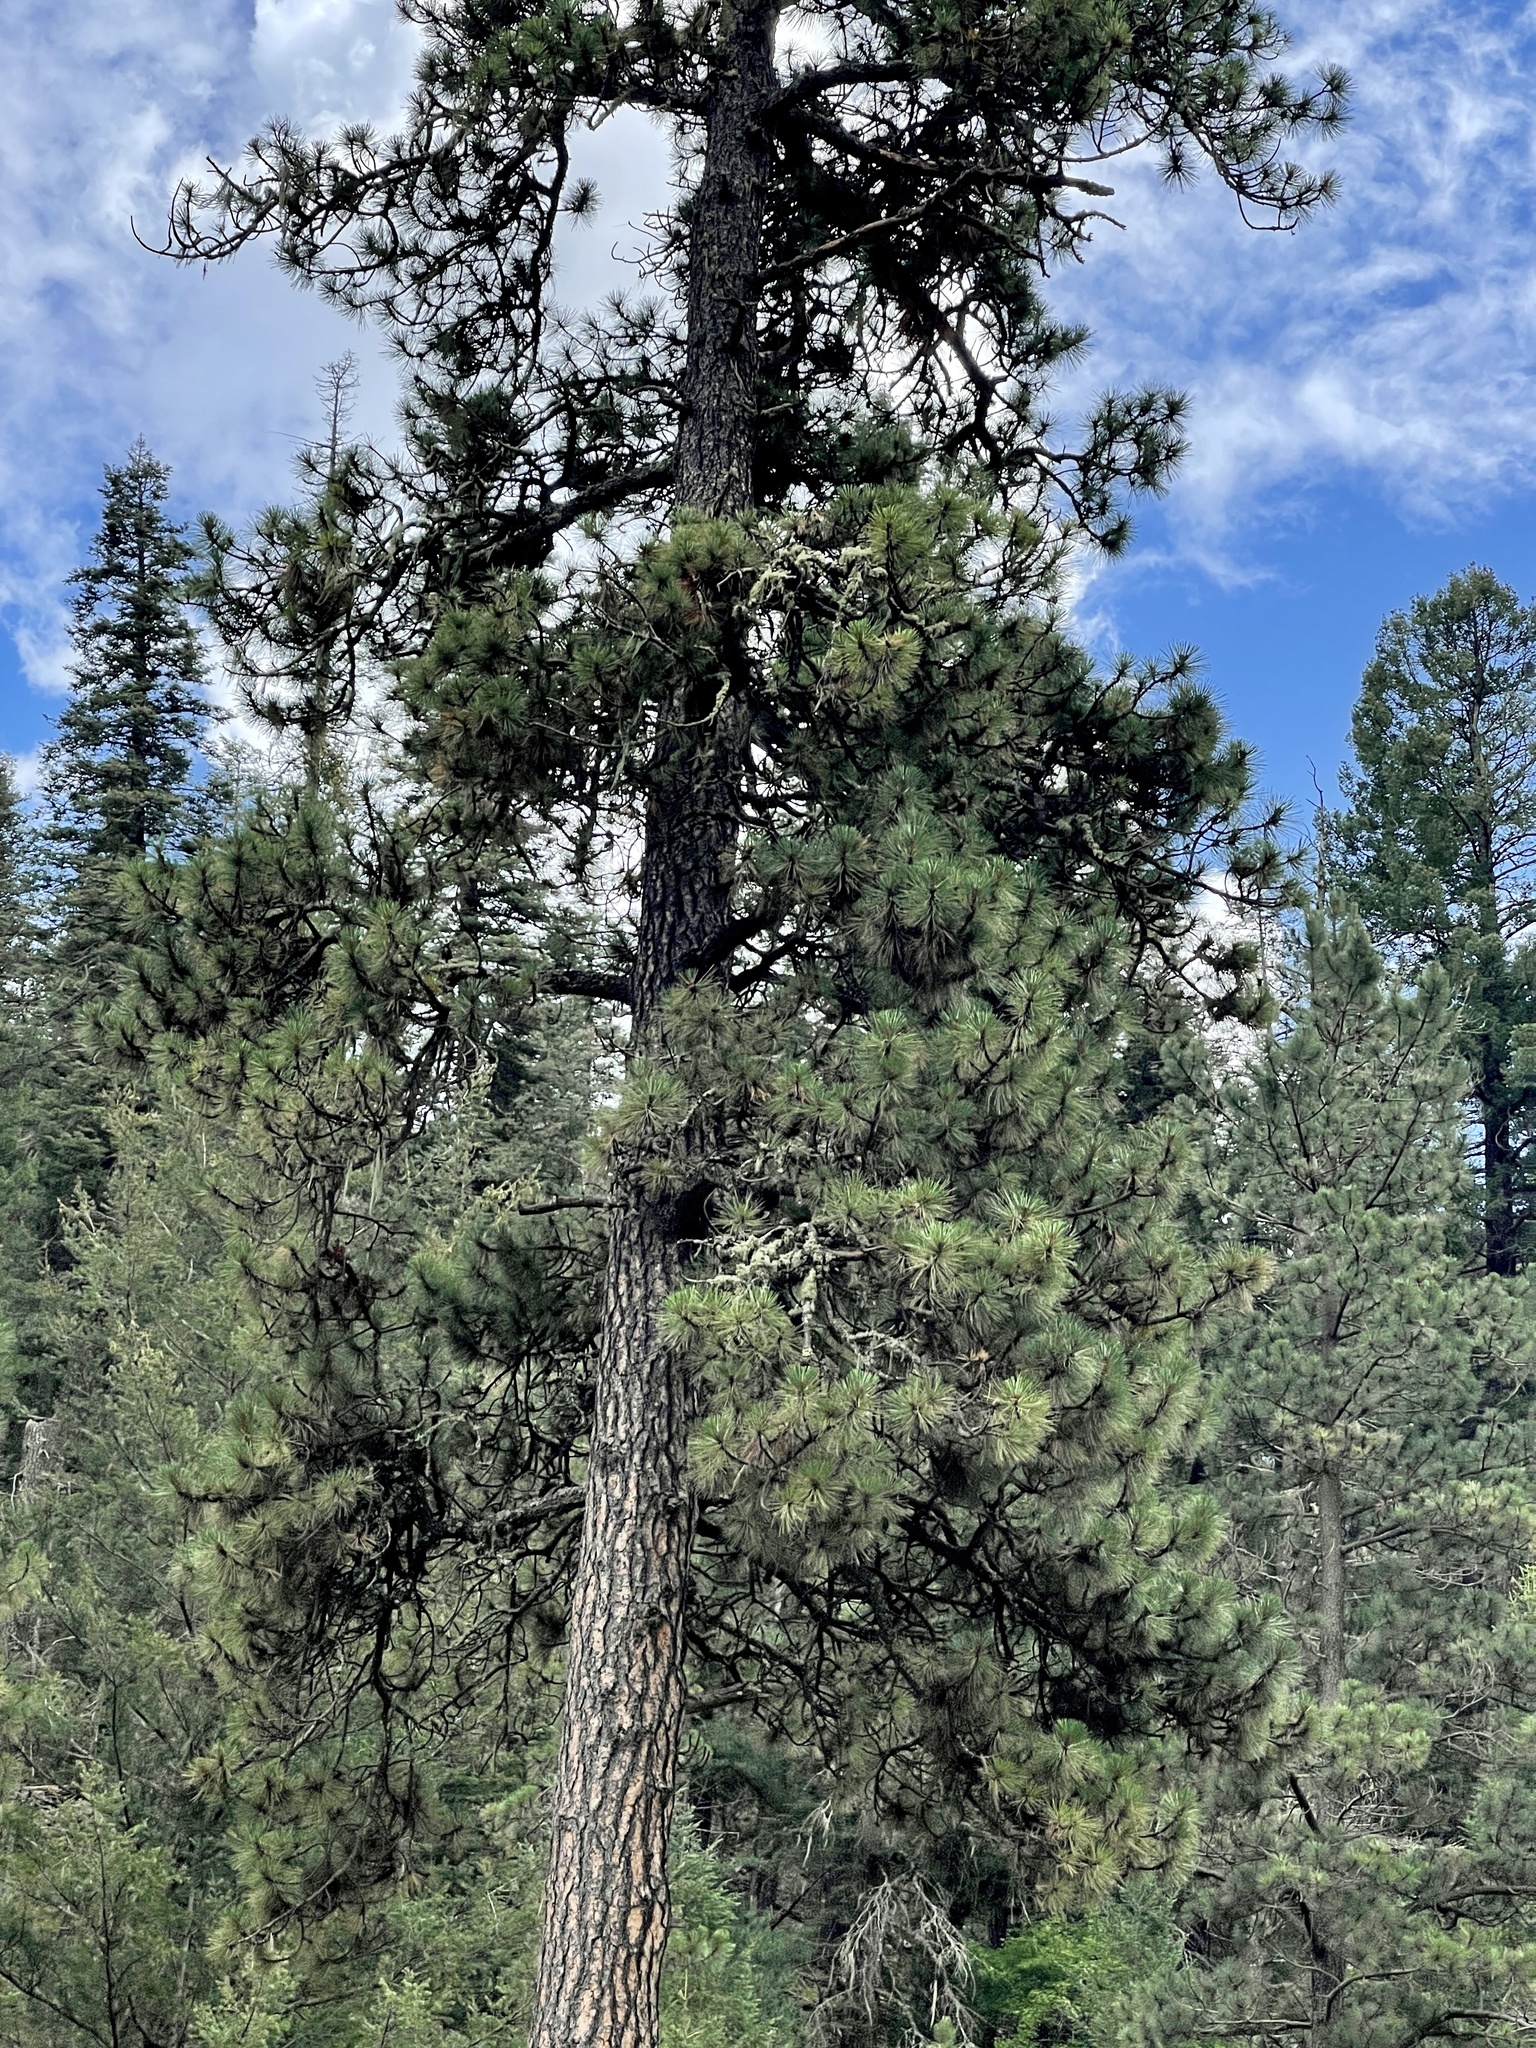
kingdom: Plantae
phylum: Tracheophyta
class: Pinopsida
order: Pinales
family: Pinaceae
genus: Pinus
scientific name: Pinus ponderosa
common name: Western yellow-pine
